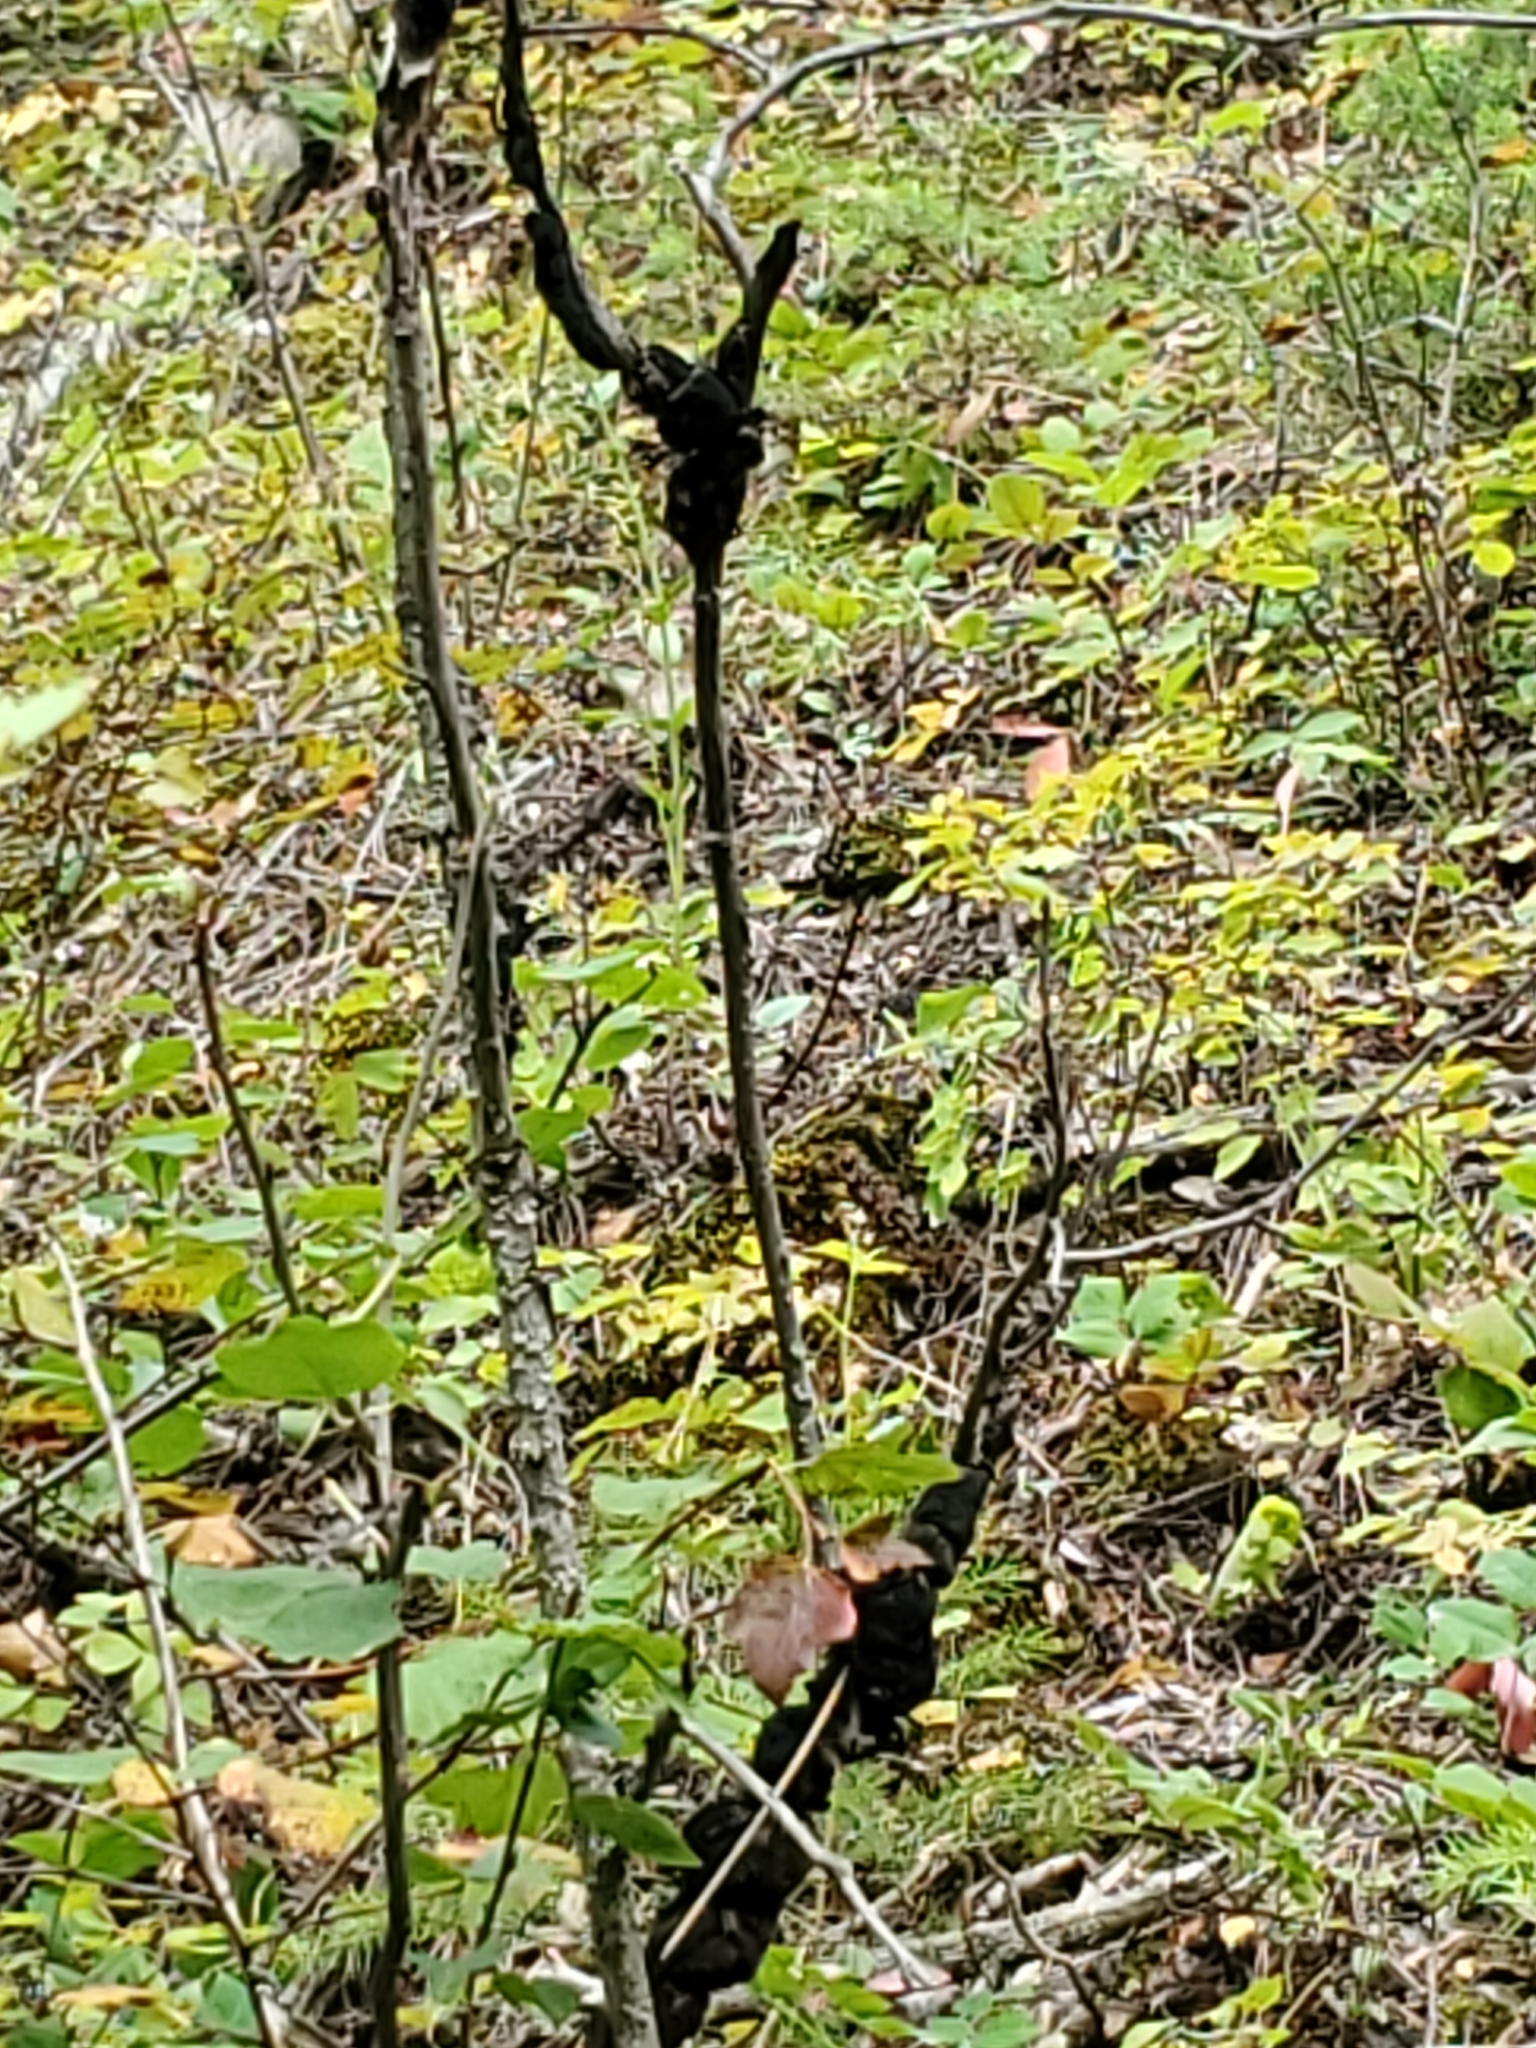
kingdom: Fungi
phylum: Ascomycota
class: Dothideomycetes
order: Venturiales
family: Venturiaceae
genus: Apiosporina
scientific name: Apiosporina morbosa
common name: Black knot
